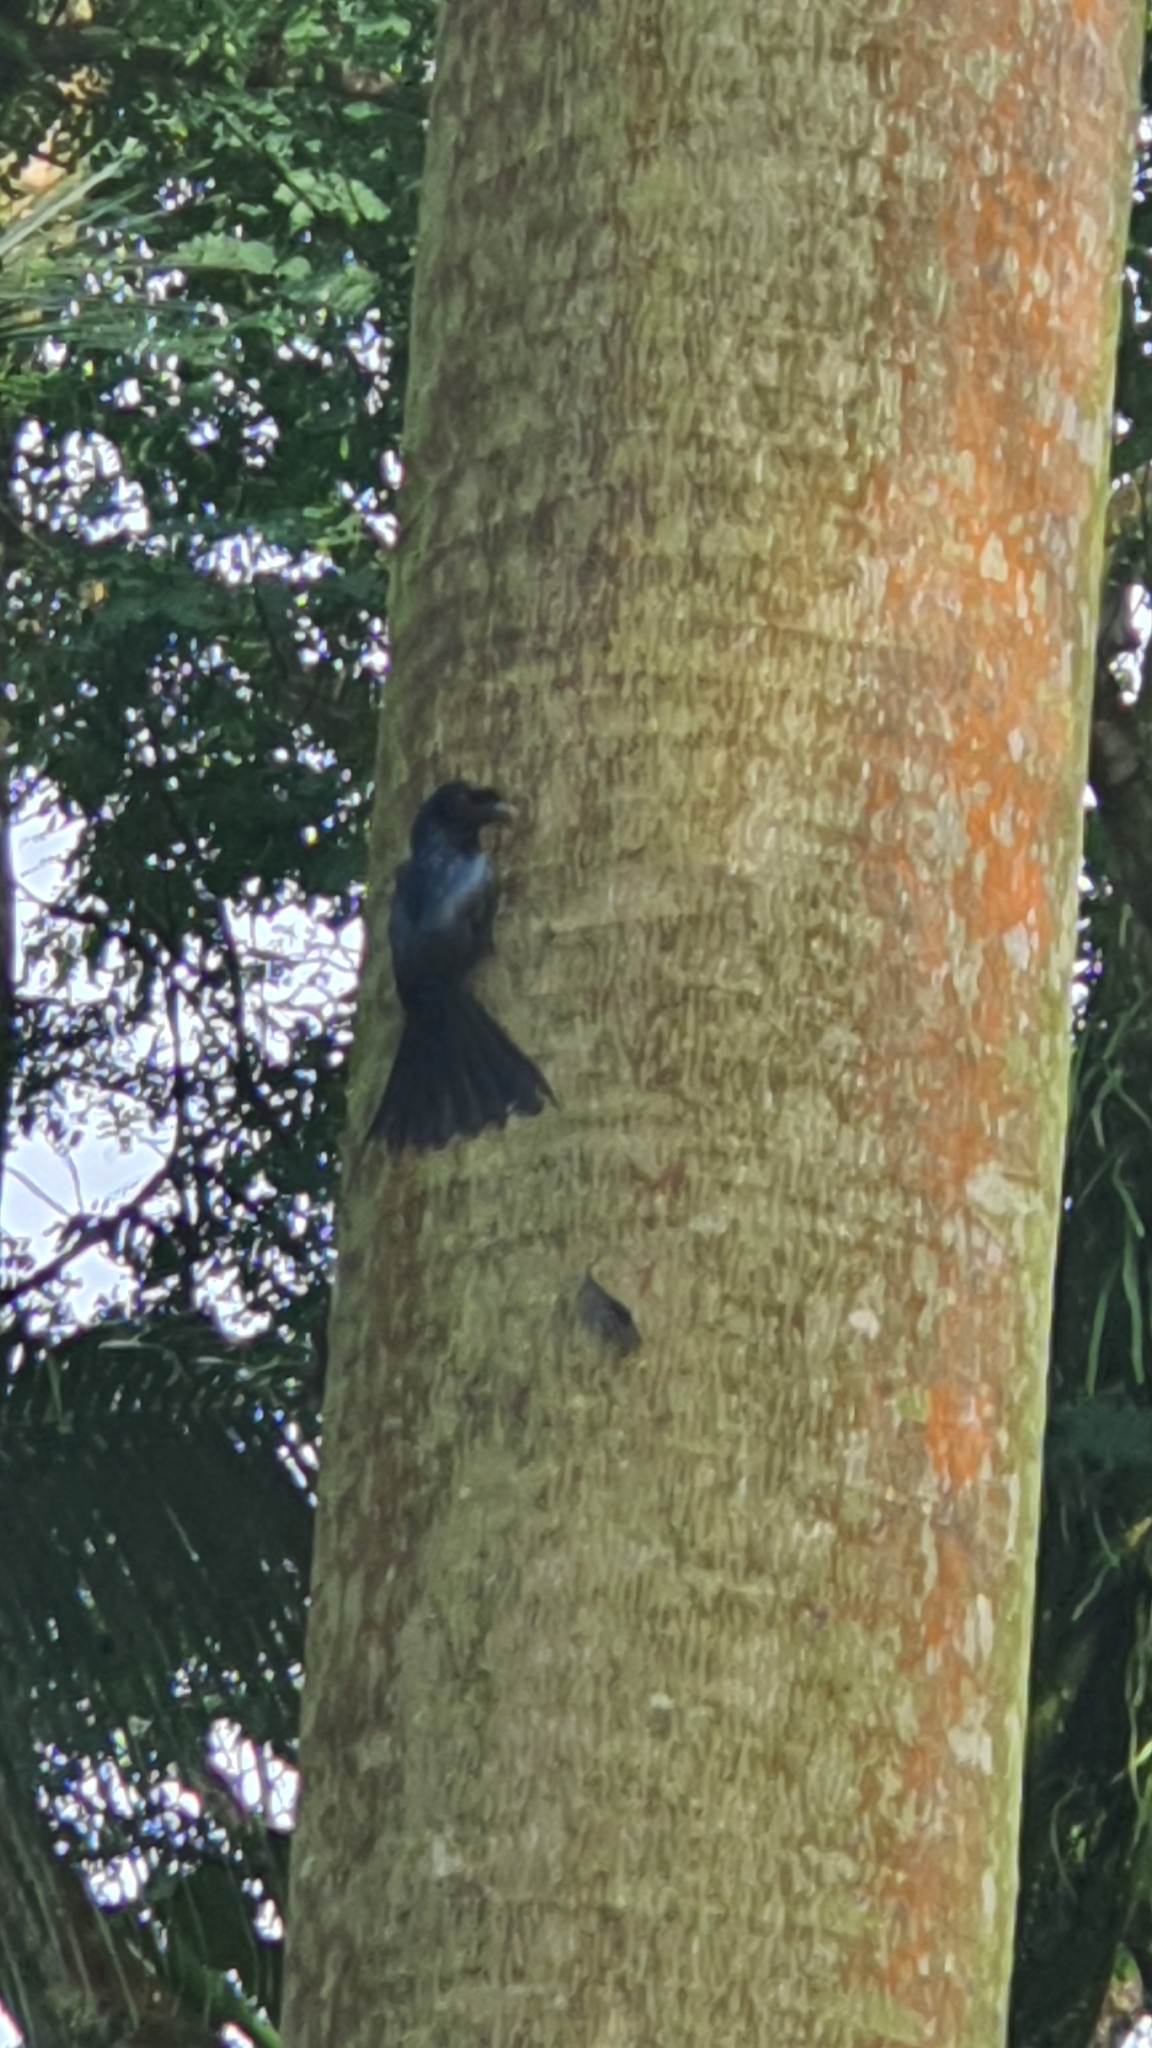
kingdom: Animalia
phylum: Chordata
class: Aves
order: Passeriformes
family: Dicruridae
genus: Dicrurus
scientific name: Dicrurus paradiseus
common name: Greater racket-tailed drongo
